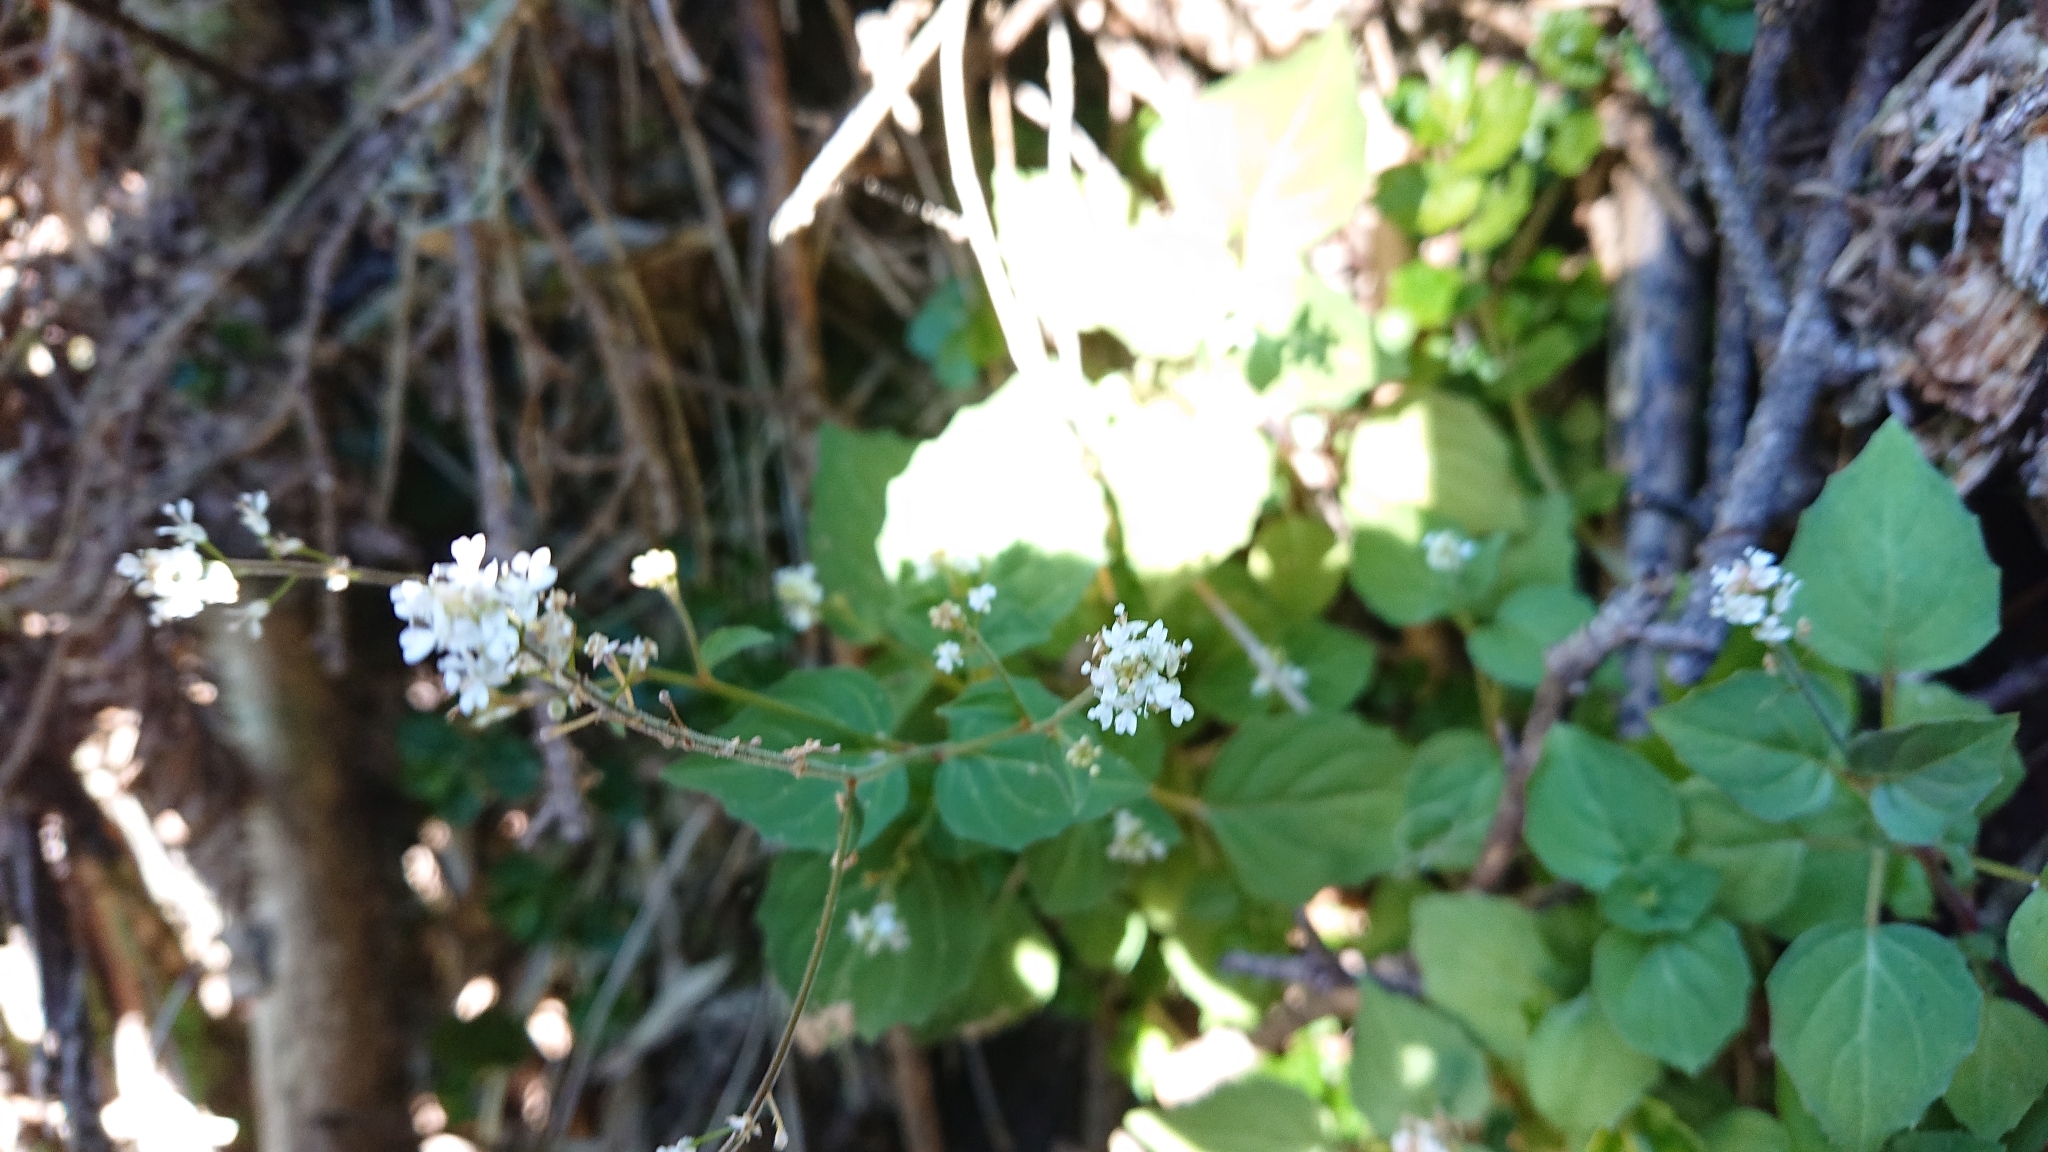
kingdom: Plantae
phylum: Tracheophyta
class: Magnoliopsida
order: Myrtales
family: Onagraceae
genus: Circaea
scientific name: Circaea alpina
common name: Alpine enchanter's-nightshade
